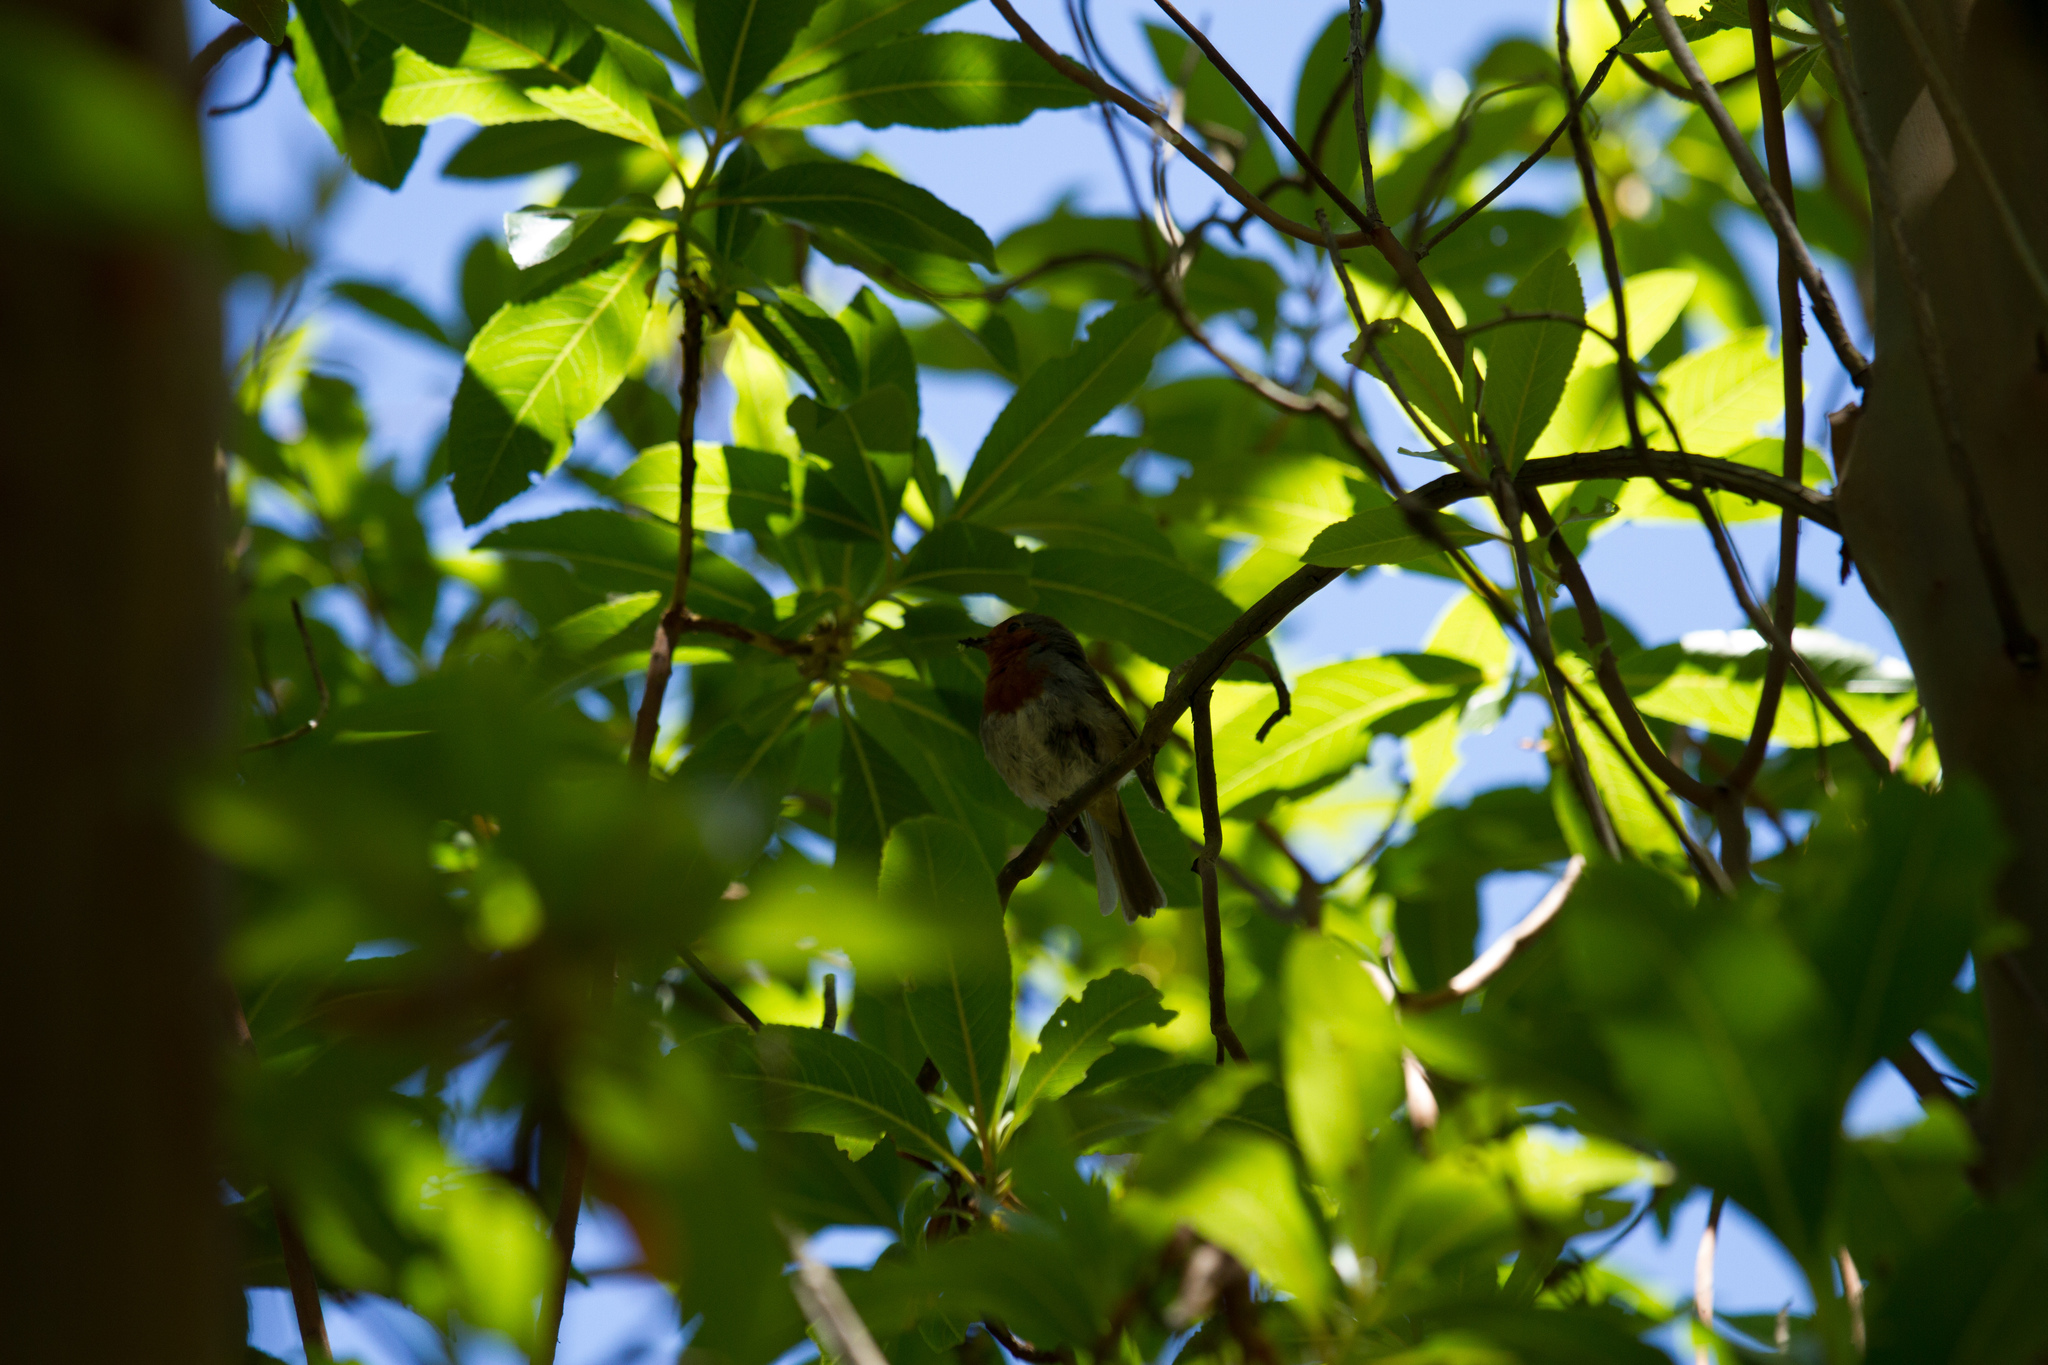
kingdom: Animalia
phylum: Chordata
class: Aves
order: Passeriformes
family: Muscicapidae
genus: Erithacus
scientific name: Erithacus rubecula
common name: European robin
